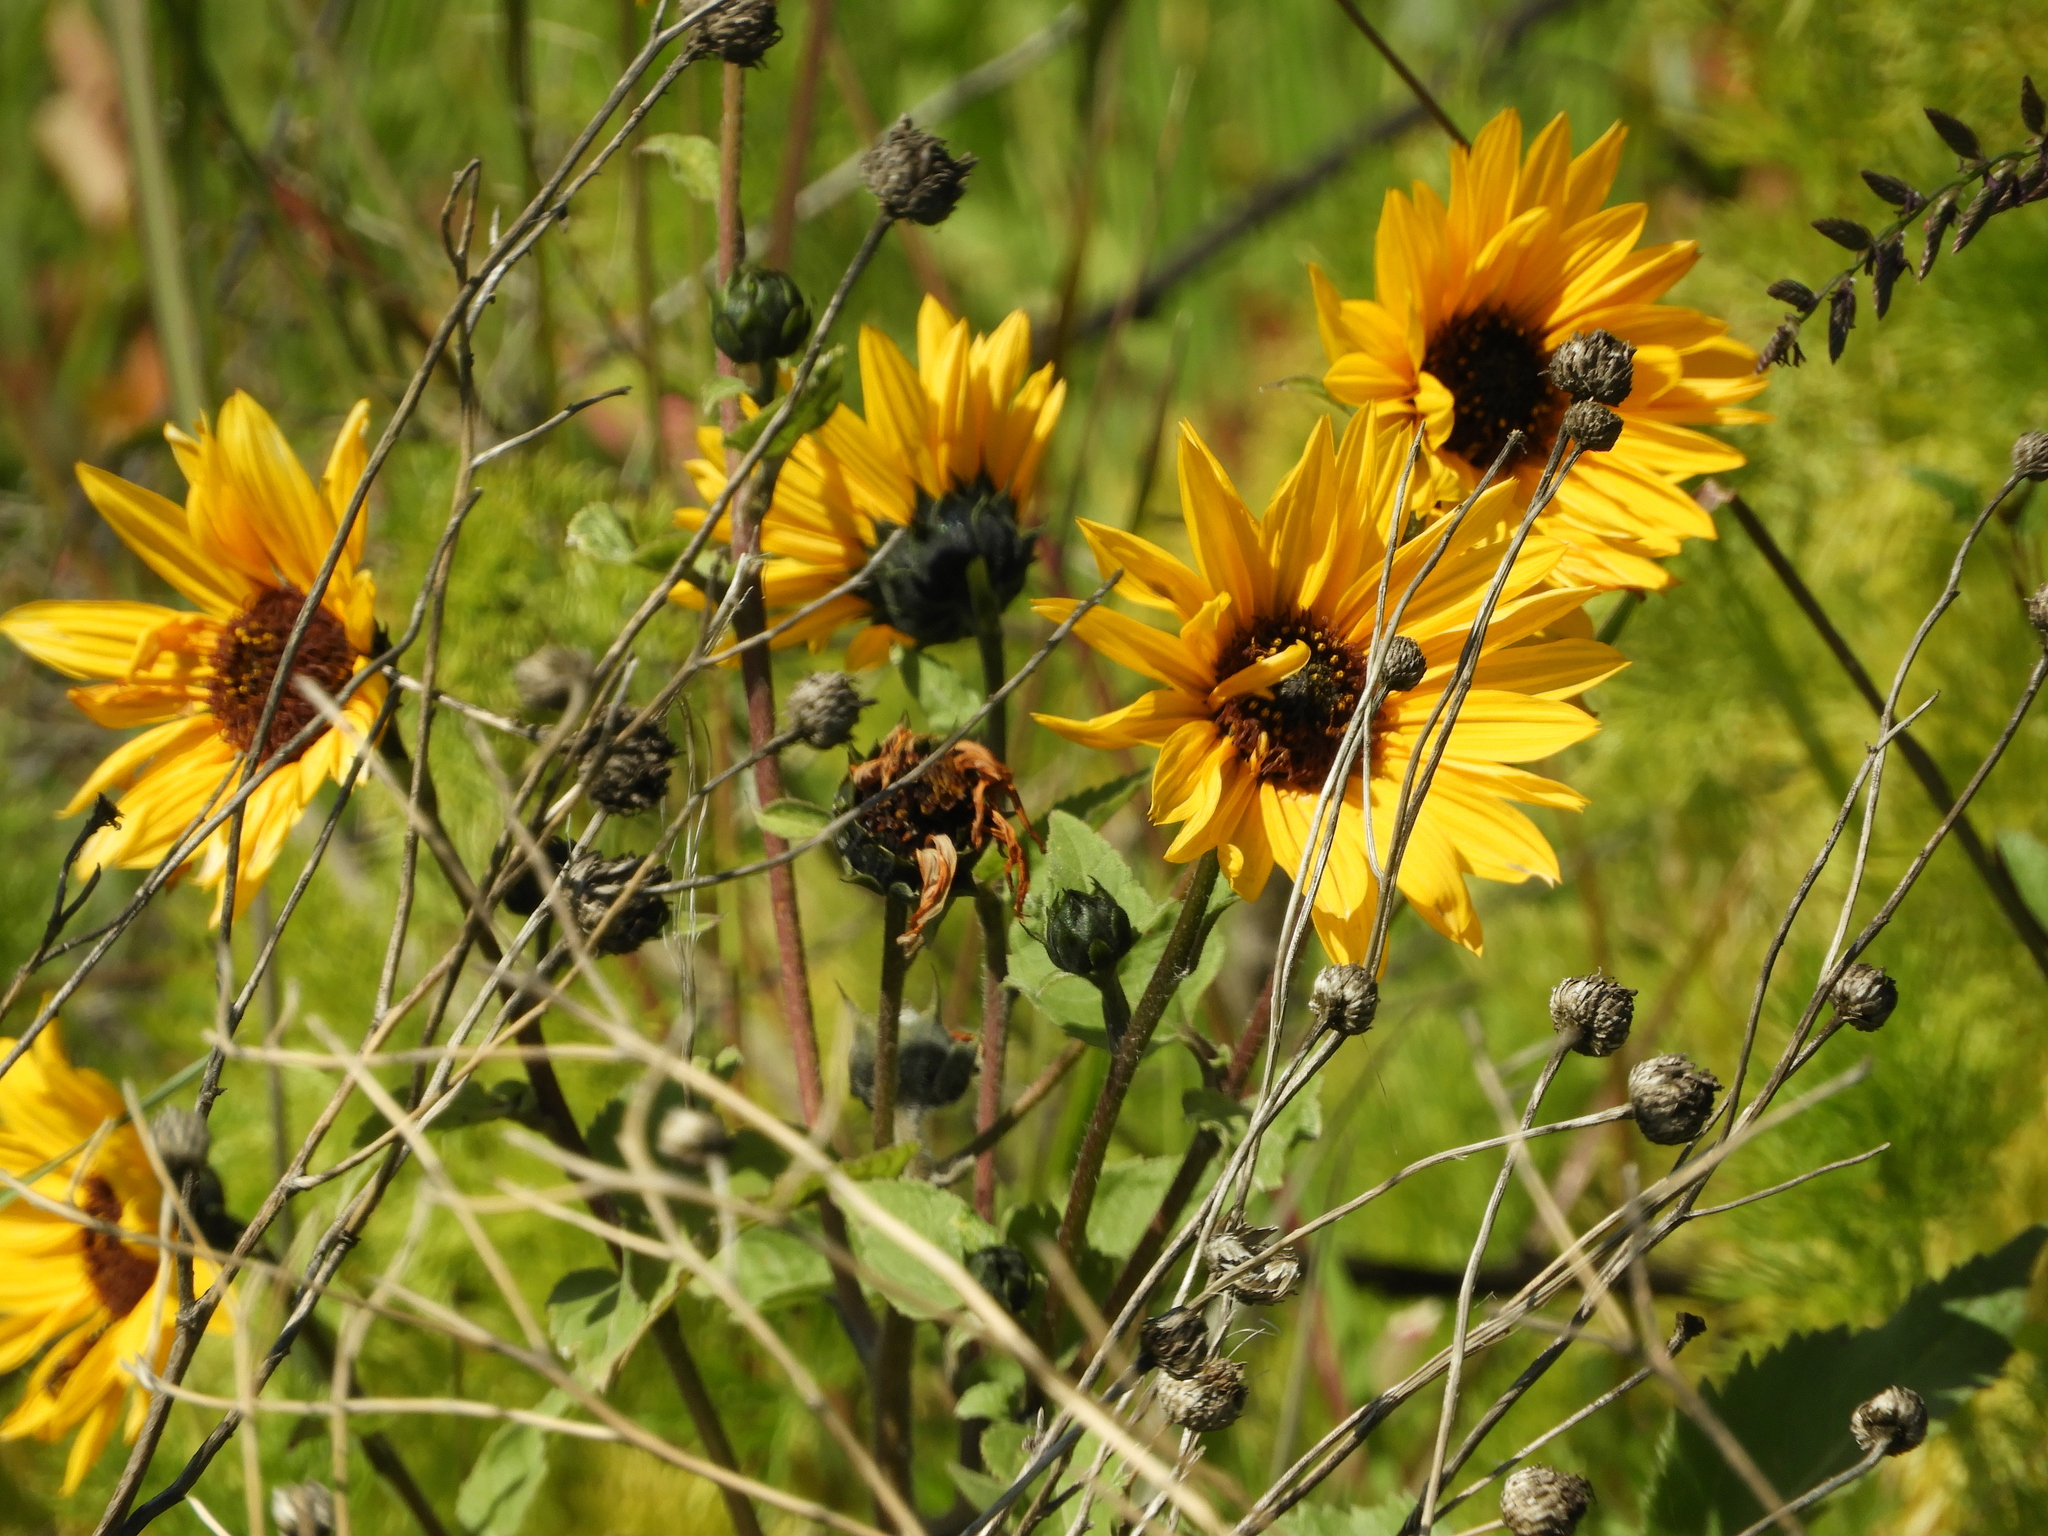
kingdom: Plantae
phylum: Tracheophyta
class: Magnoliopsida
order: Asterales
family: Asteraceae
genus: Helianthus
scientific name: Helianthus annuus
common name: Sunflower
